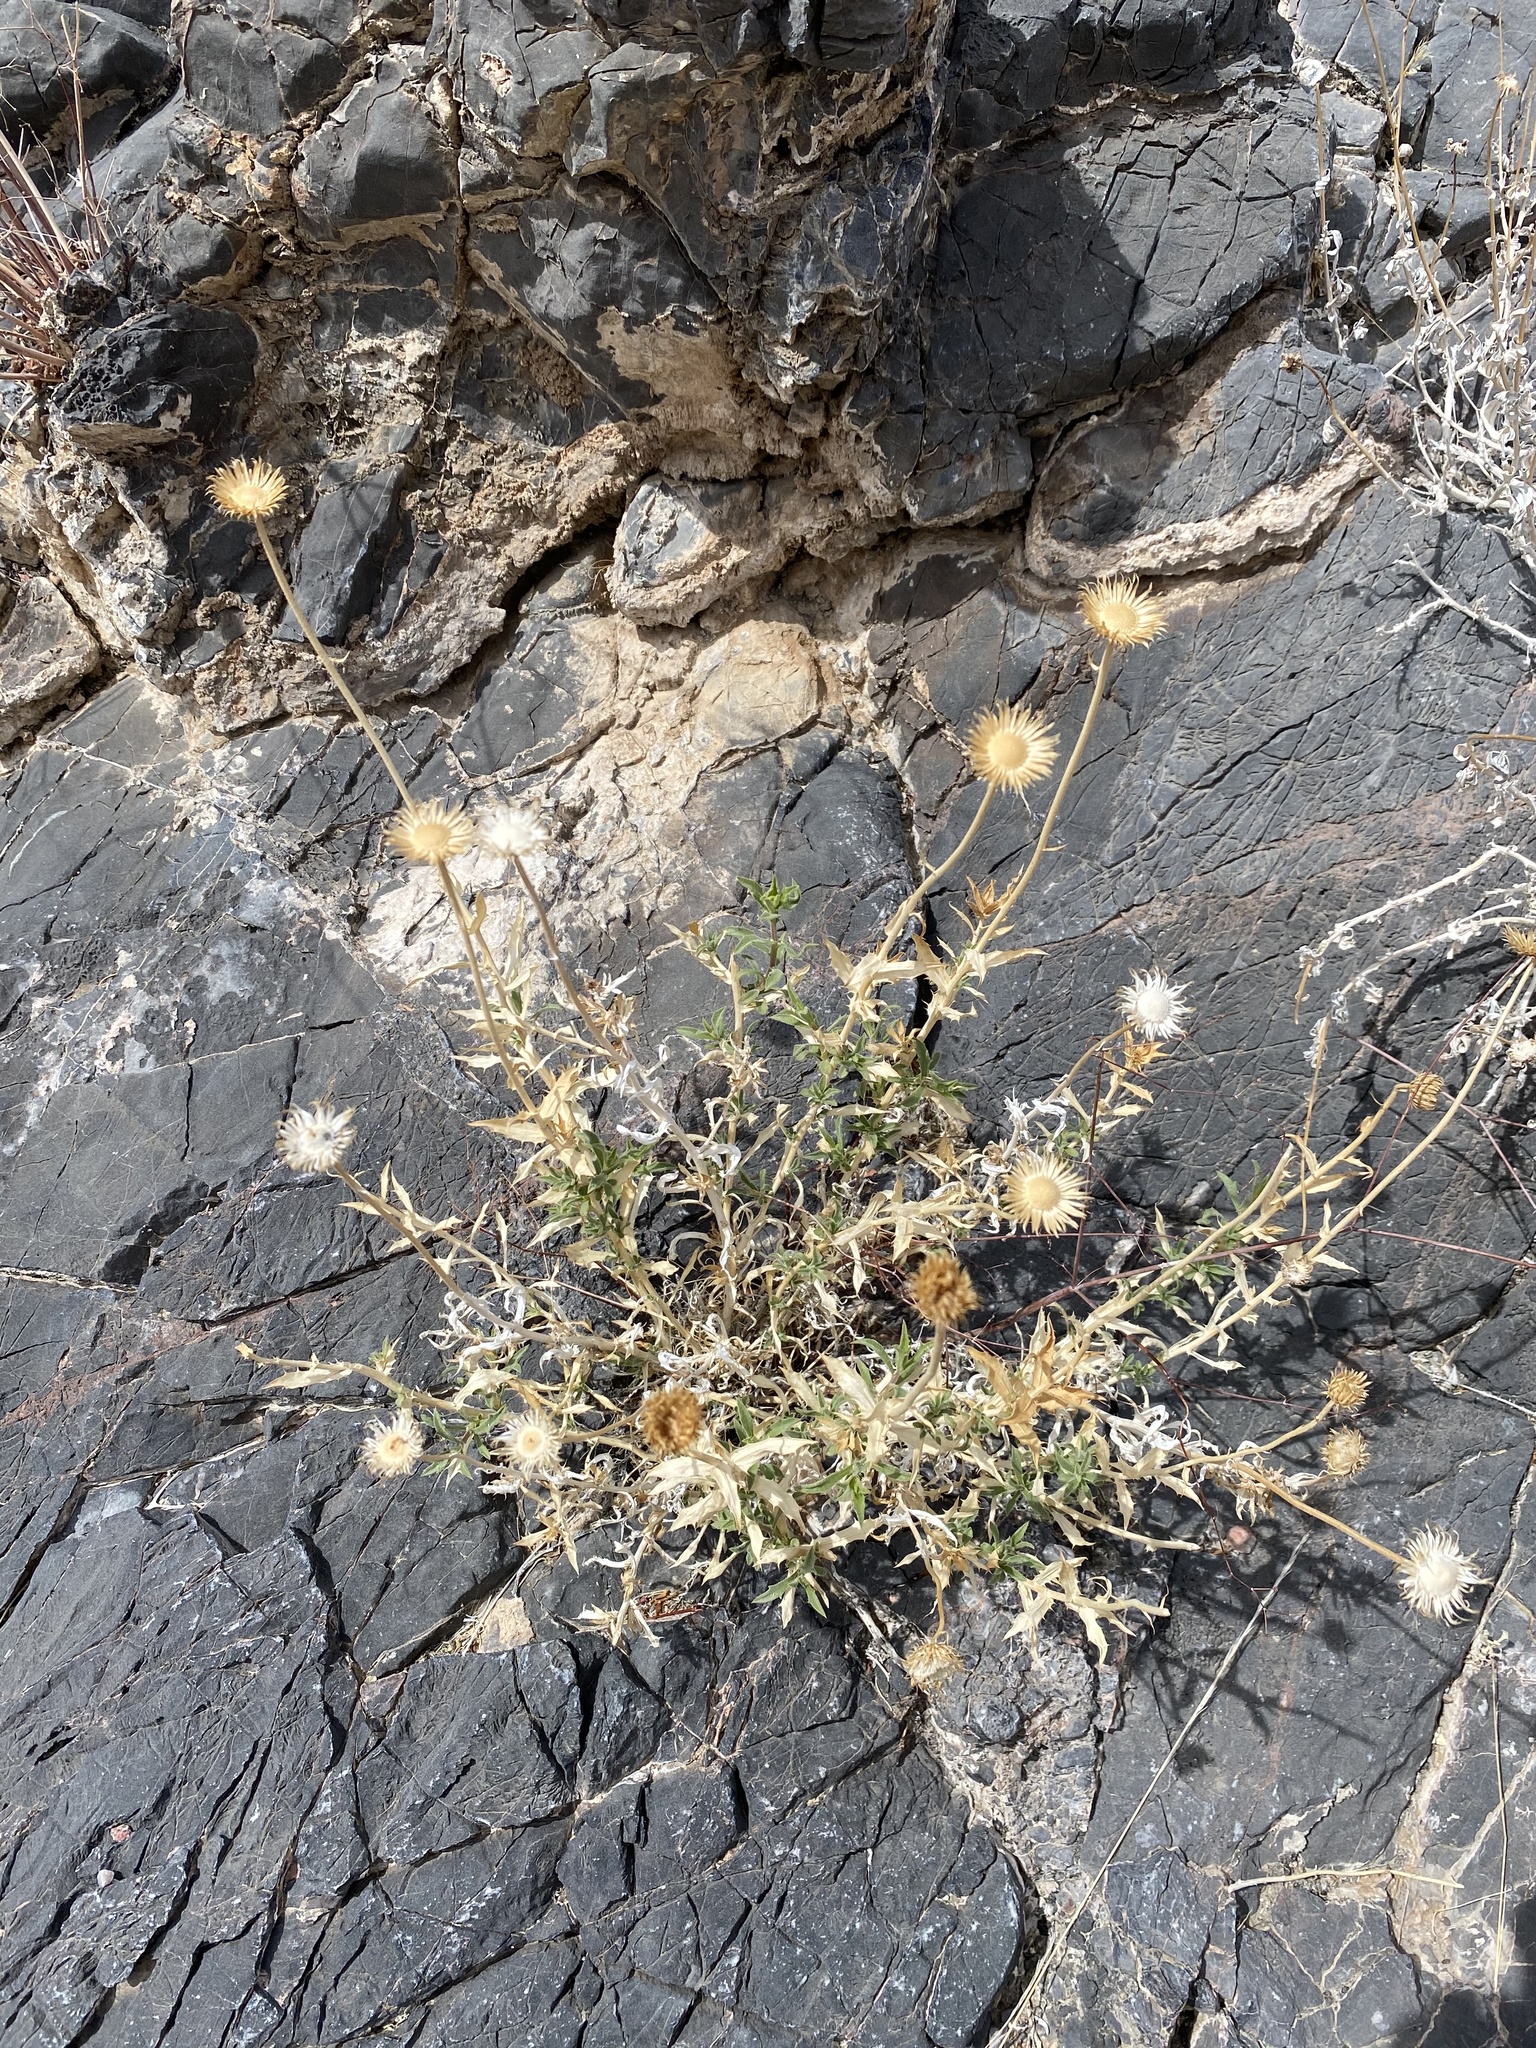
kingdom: Plantae
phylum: Tracheophyta
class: Magnoliopsida
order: Asterales
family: Asteraceae
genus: Xylorhiza
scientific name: Xylorhiza tortifolia
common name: Hurt-leaf woody-aster
